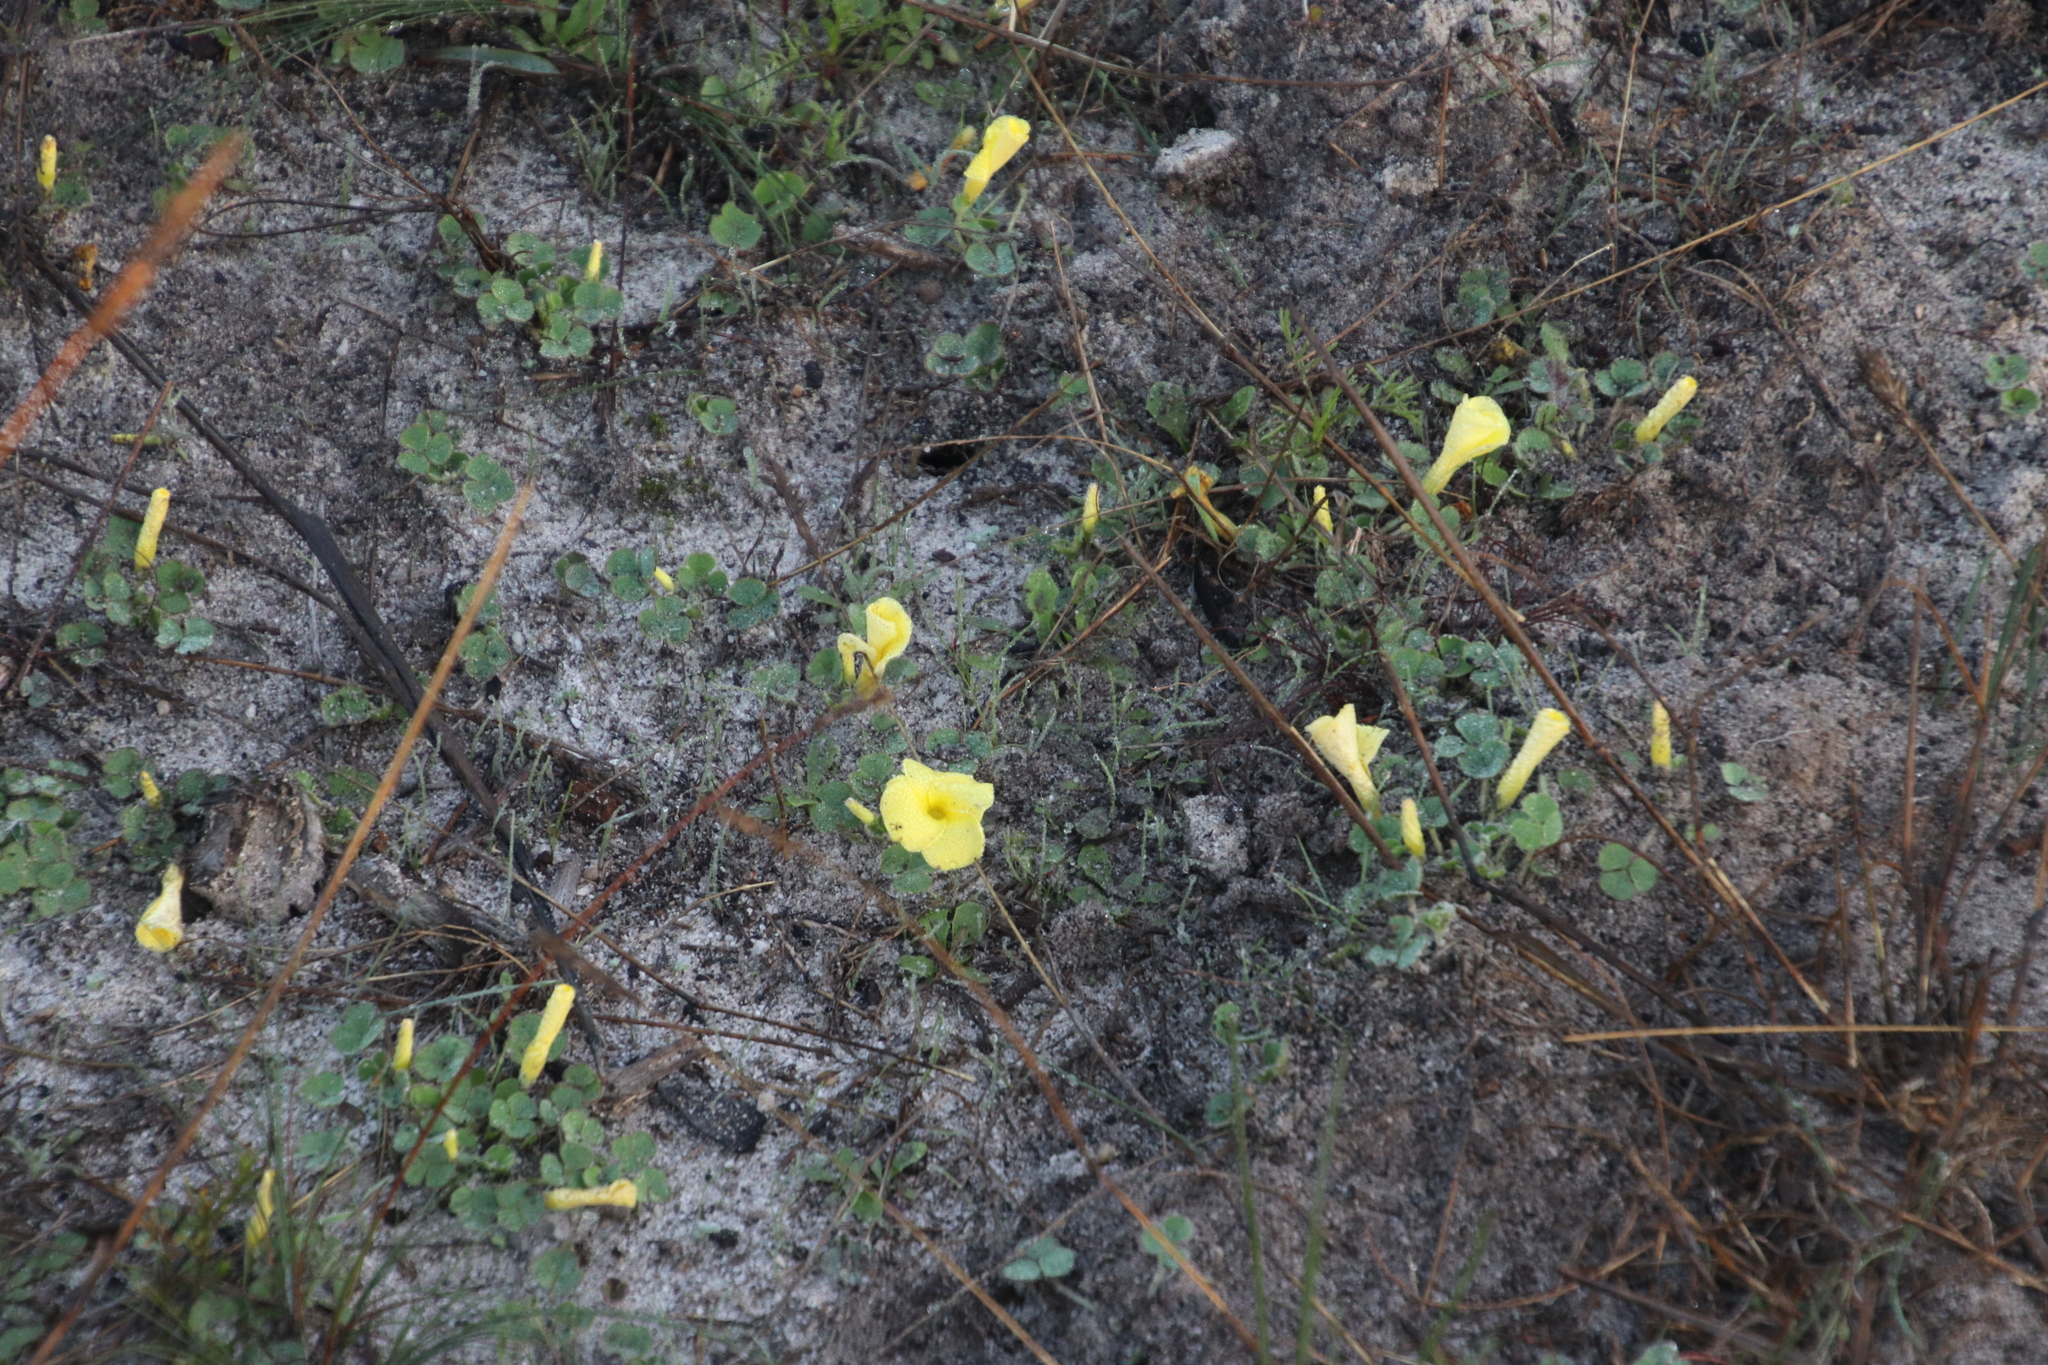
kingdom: Plantae
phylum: Tracheophyta
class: Magnoliopsida
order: Oxalidales
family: Oxalidaceae
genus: Oxalis
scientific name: Oxalis luteola
